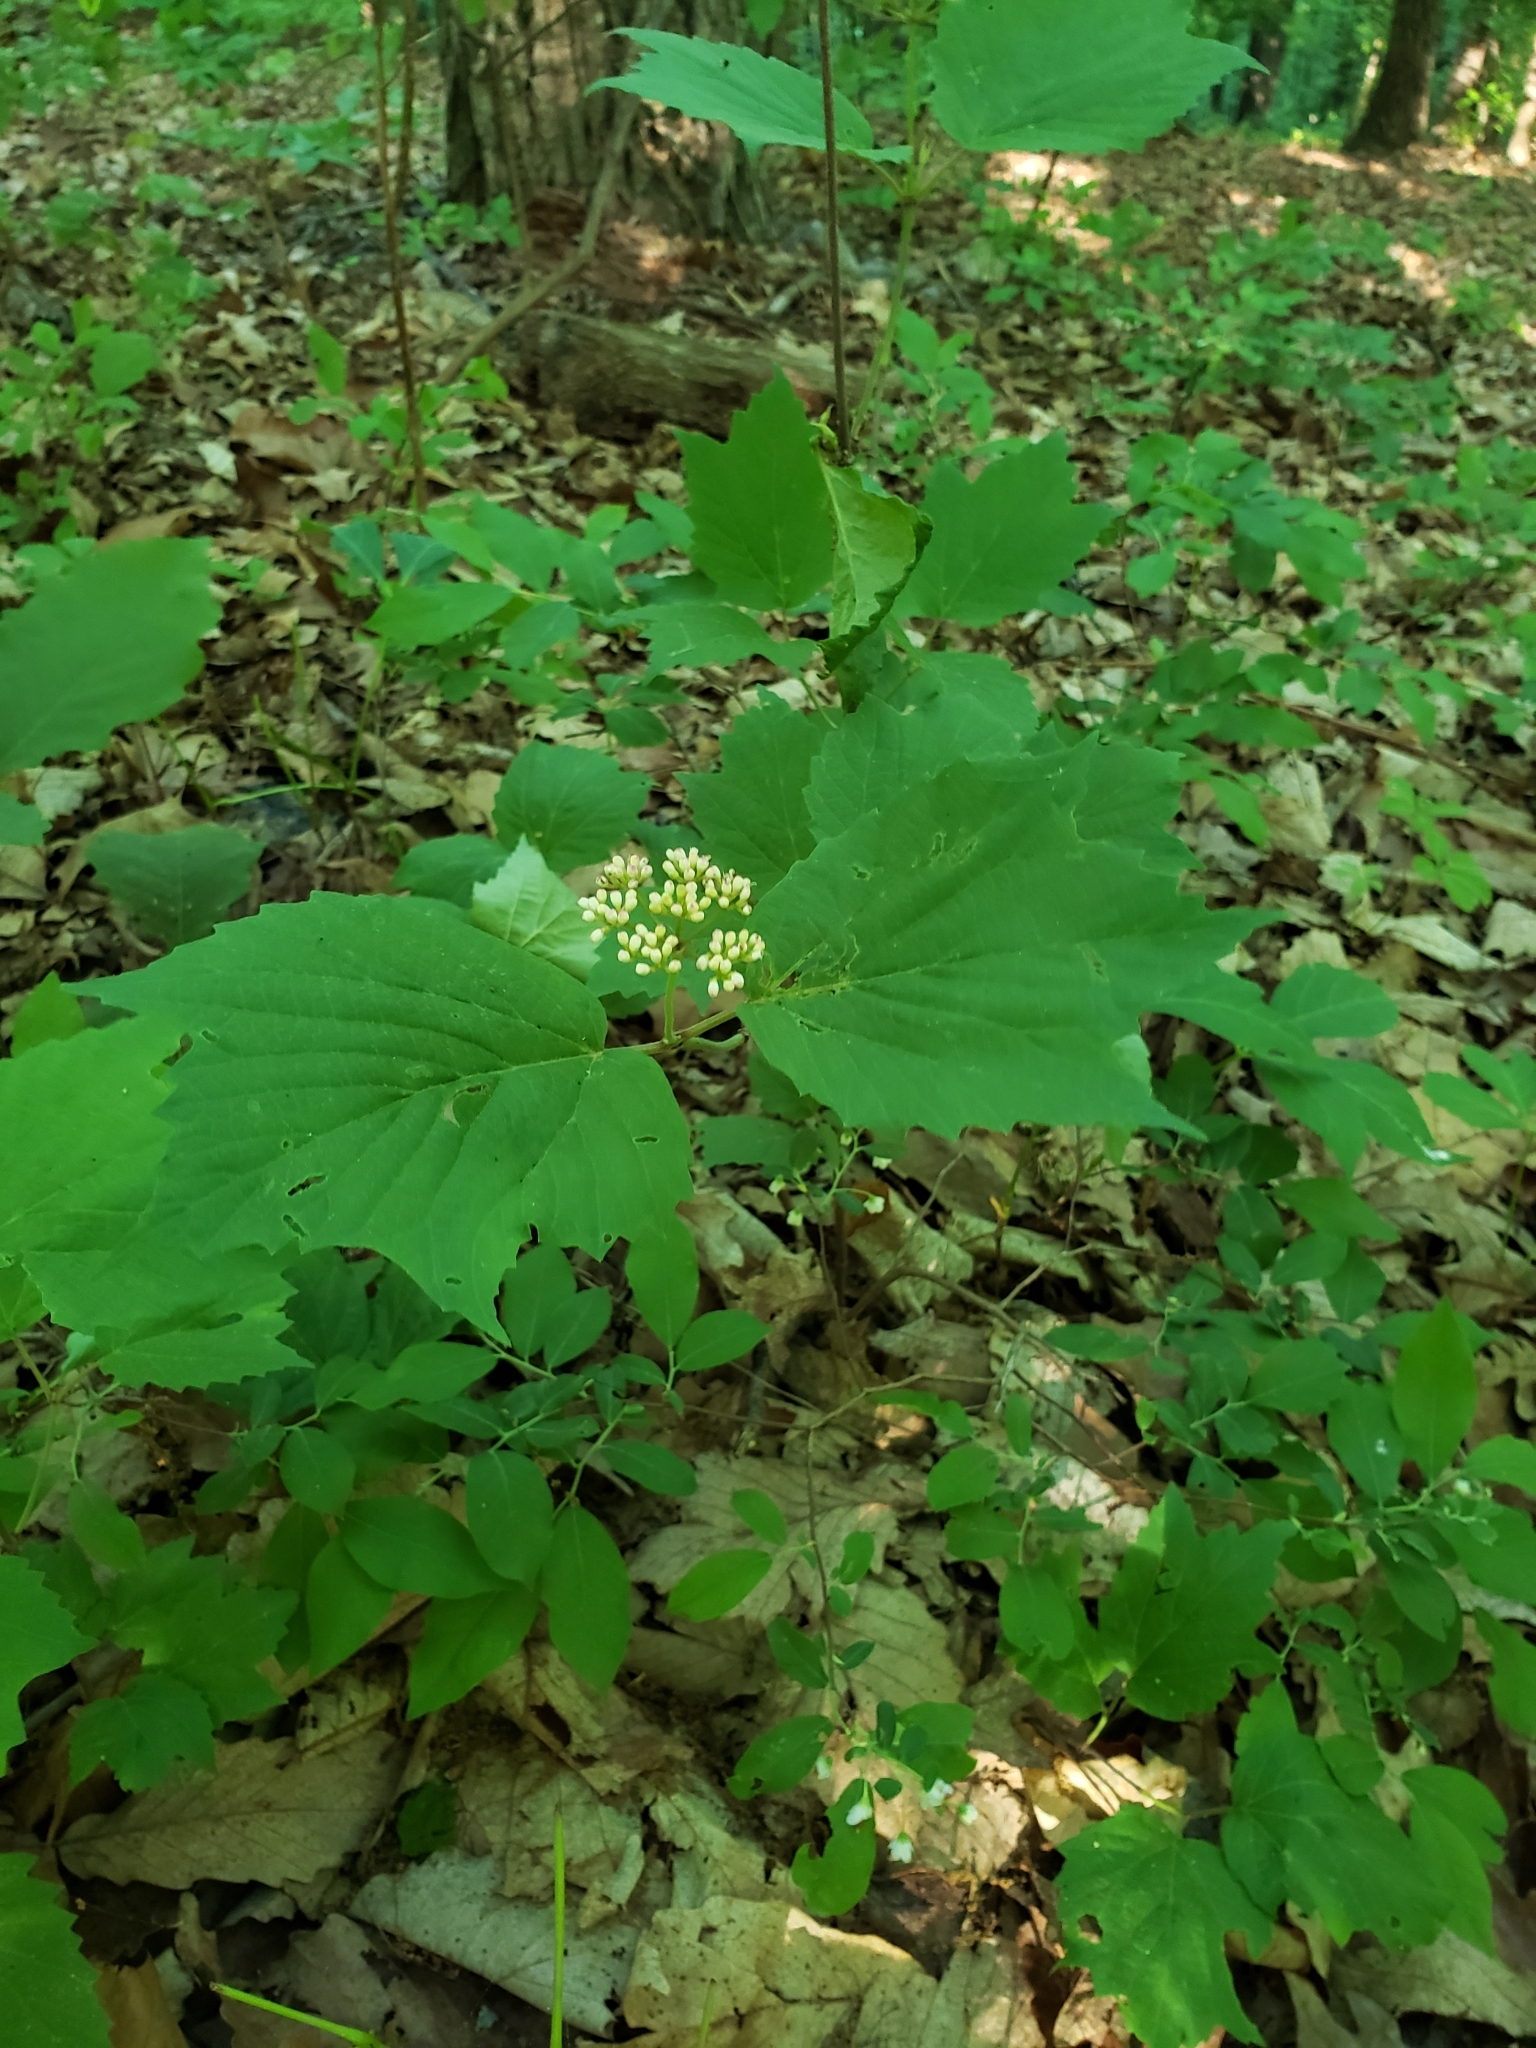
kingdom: Plantae
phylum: Tracheophyta
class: Magnoliopsida
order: Dipsacales
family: Viburnaceae
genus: Viburnum
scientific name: Viburnum acerifolium
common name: Dockmackie
